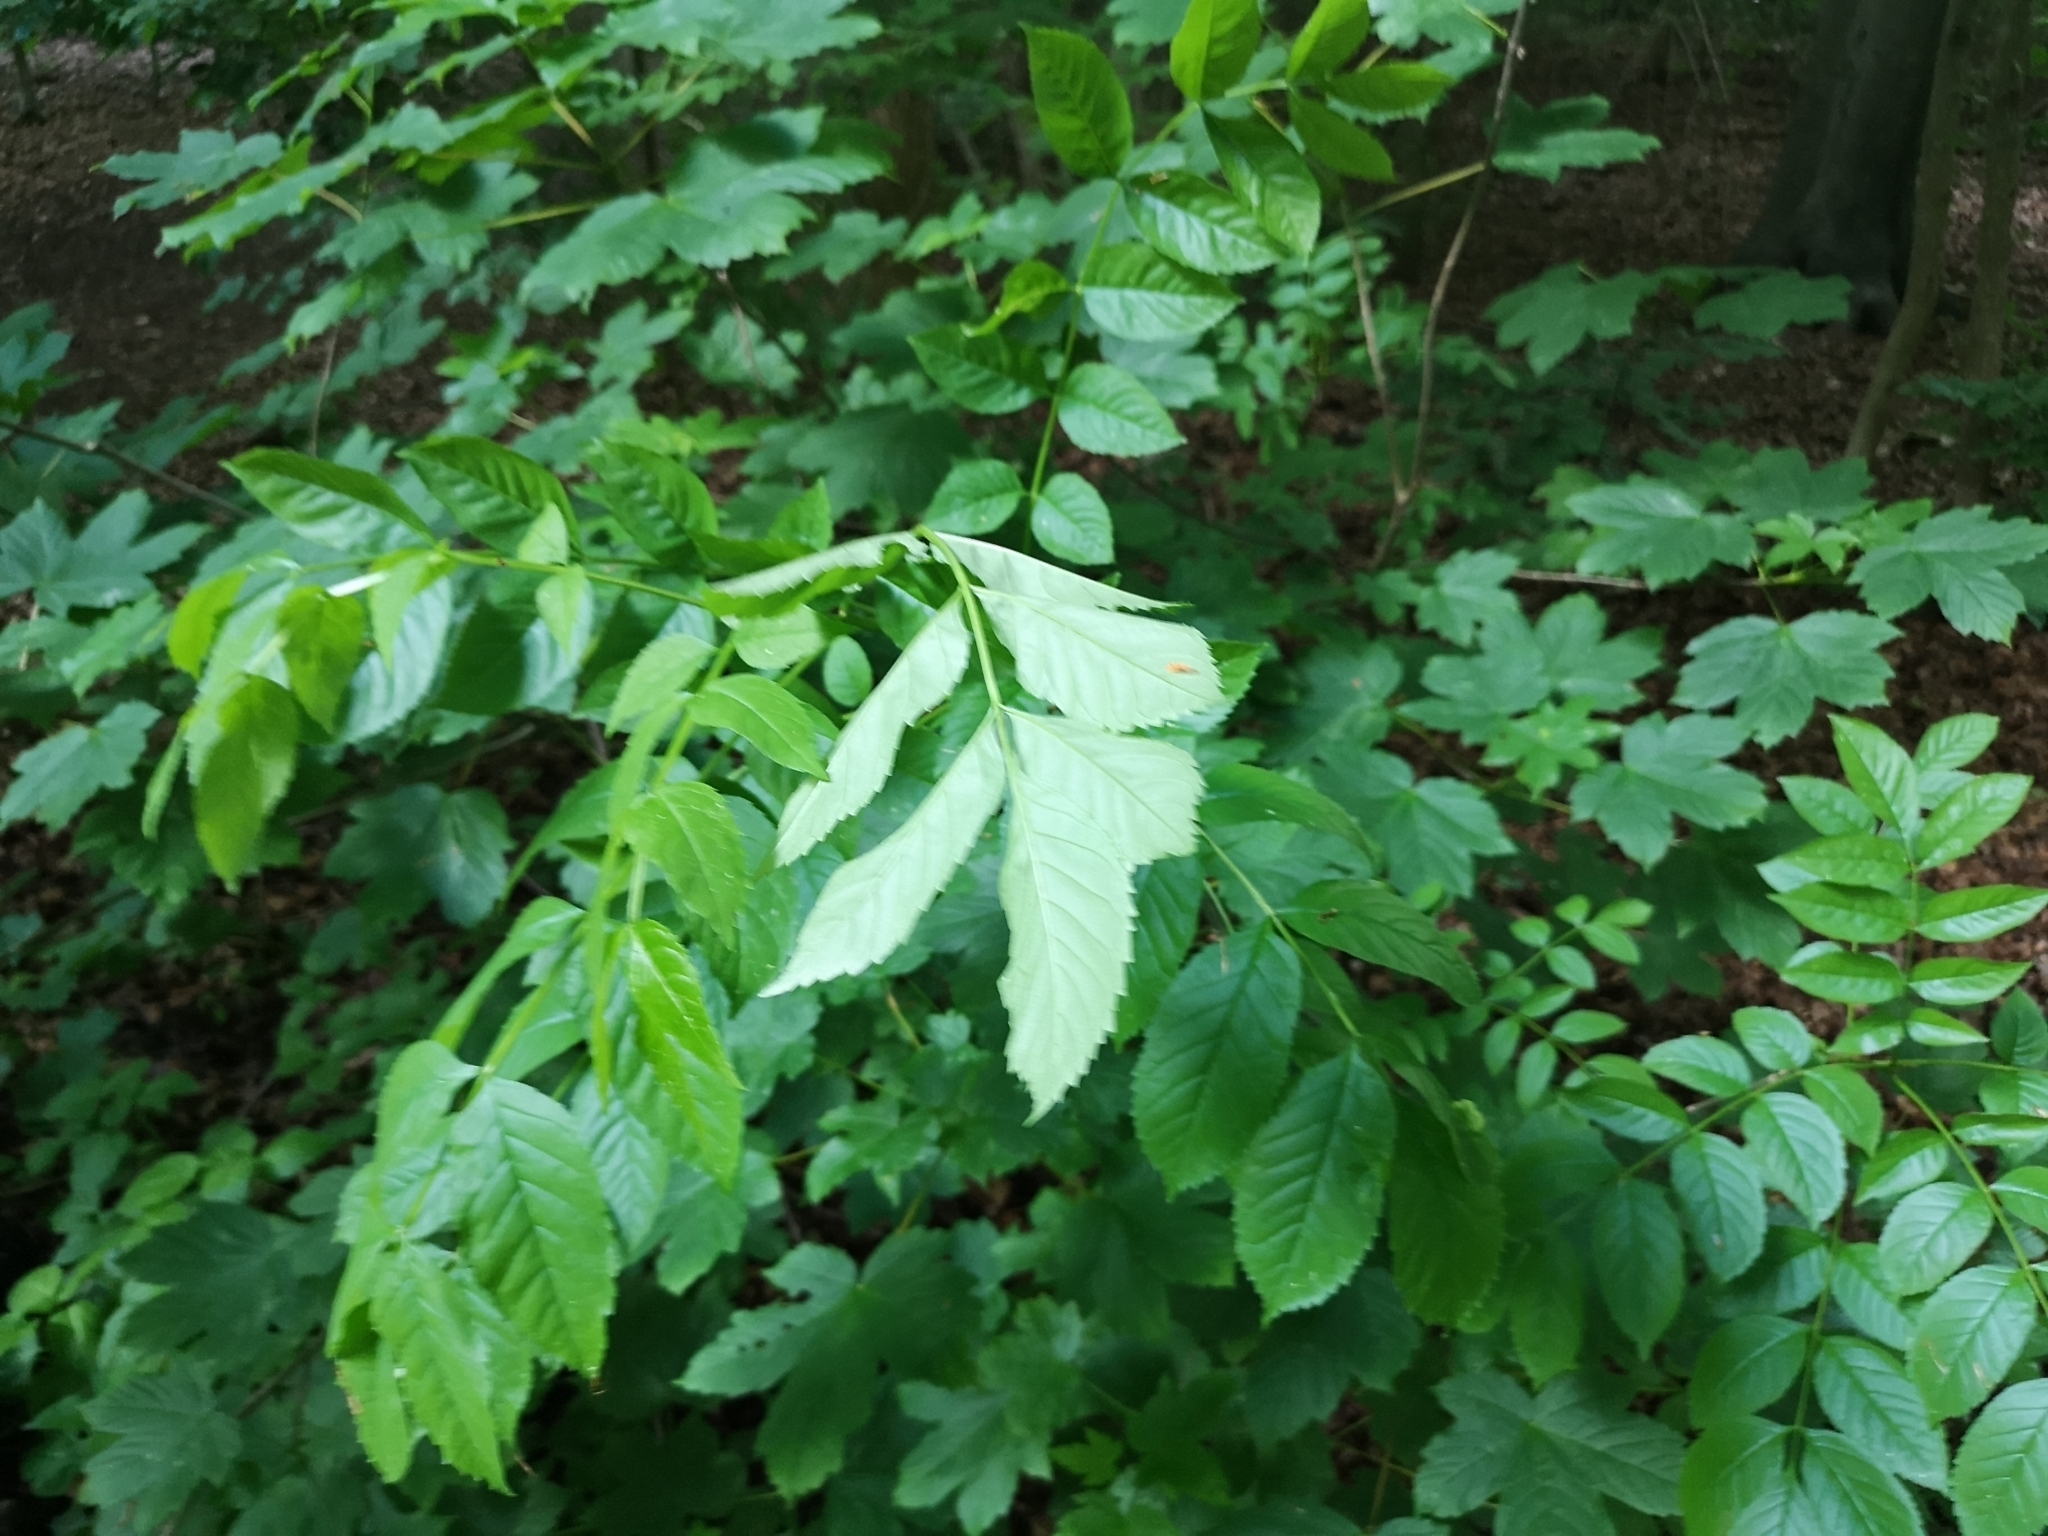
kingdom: Plantae
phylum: Tracheophyta
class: Magnoliopsida
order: Lamiales
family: Oleaceae
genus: Fraxinus
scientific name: Fraxinus excelsior
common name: European ash
